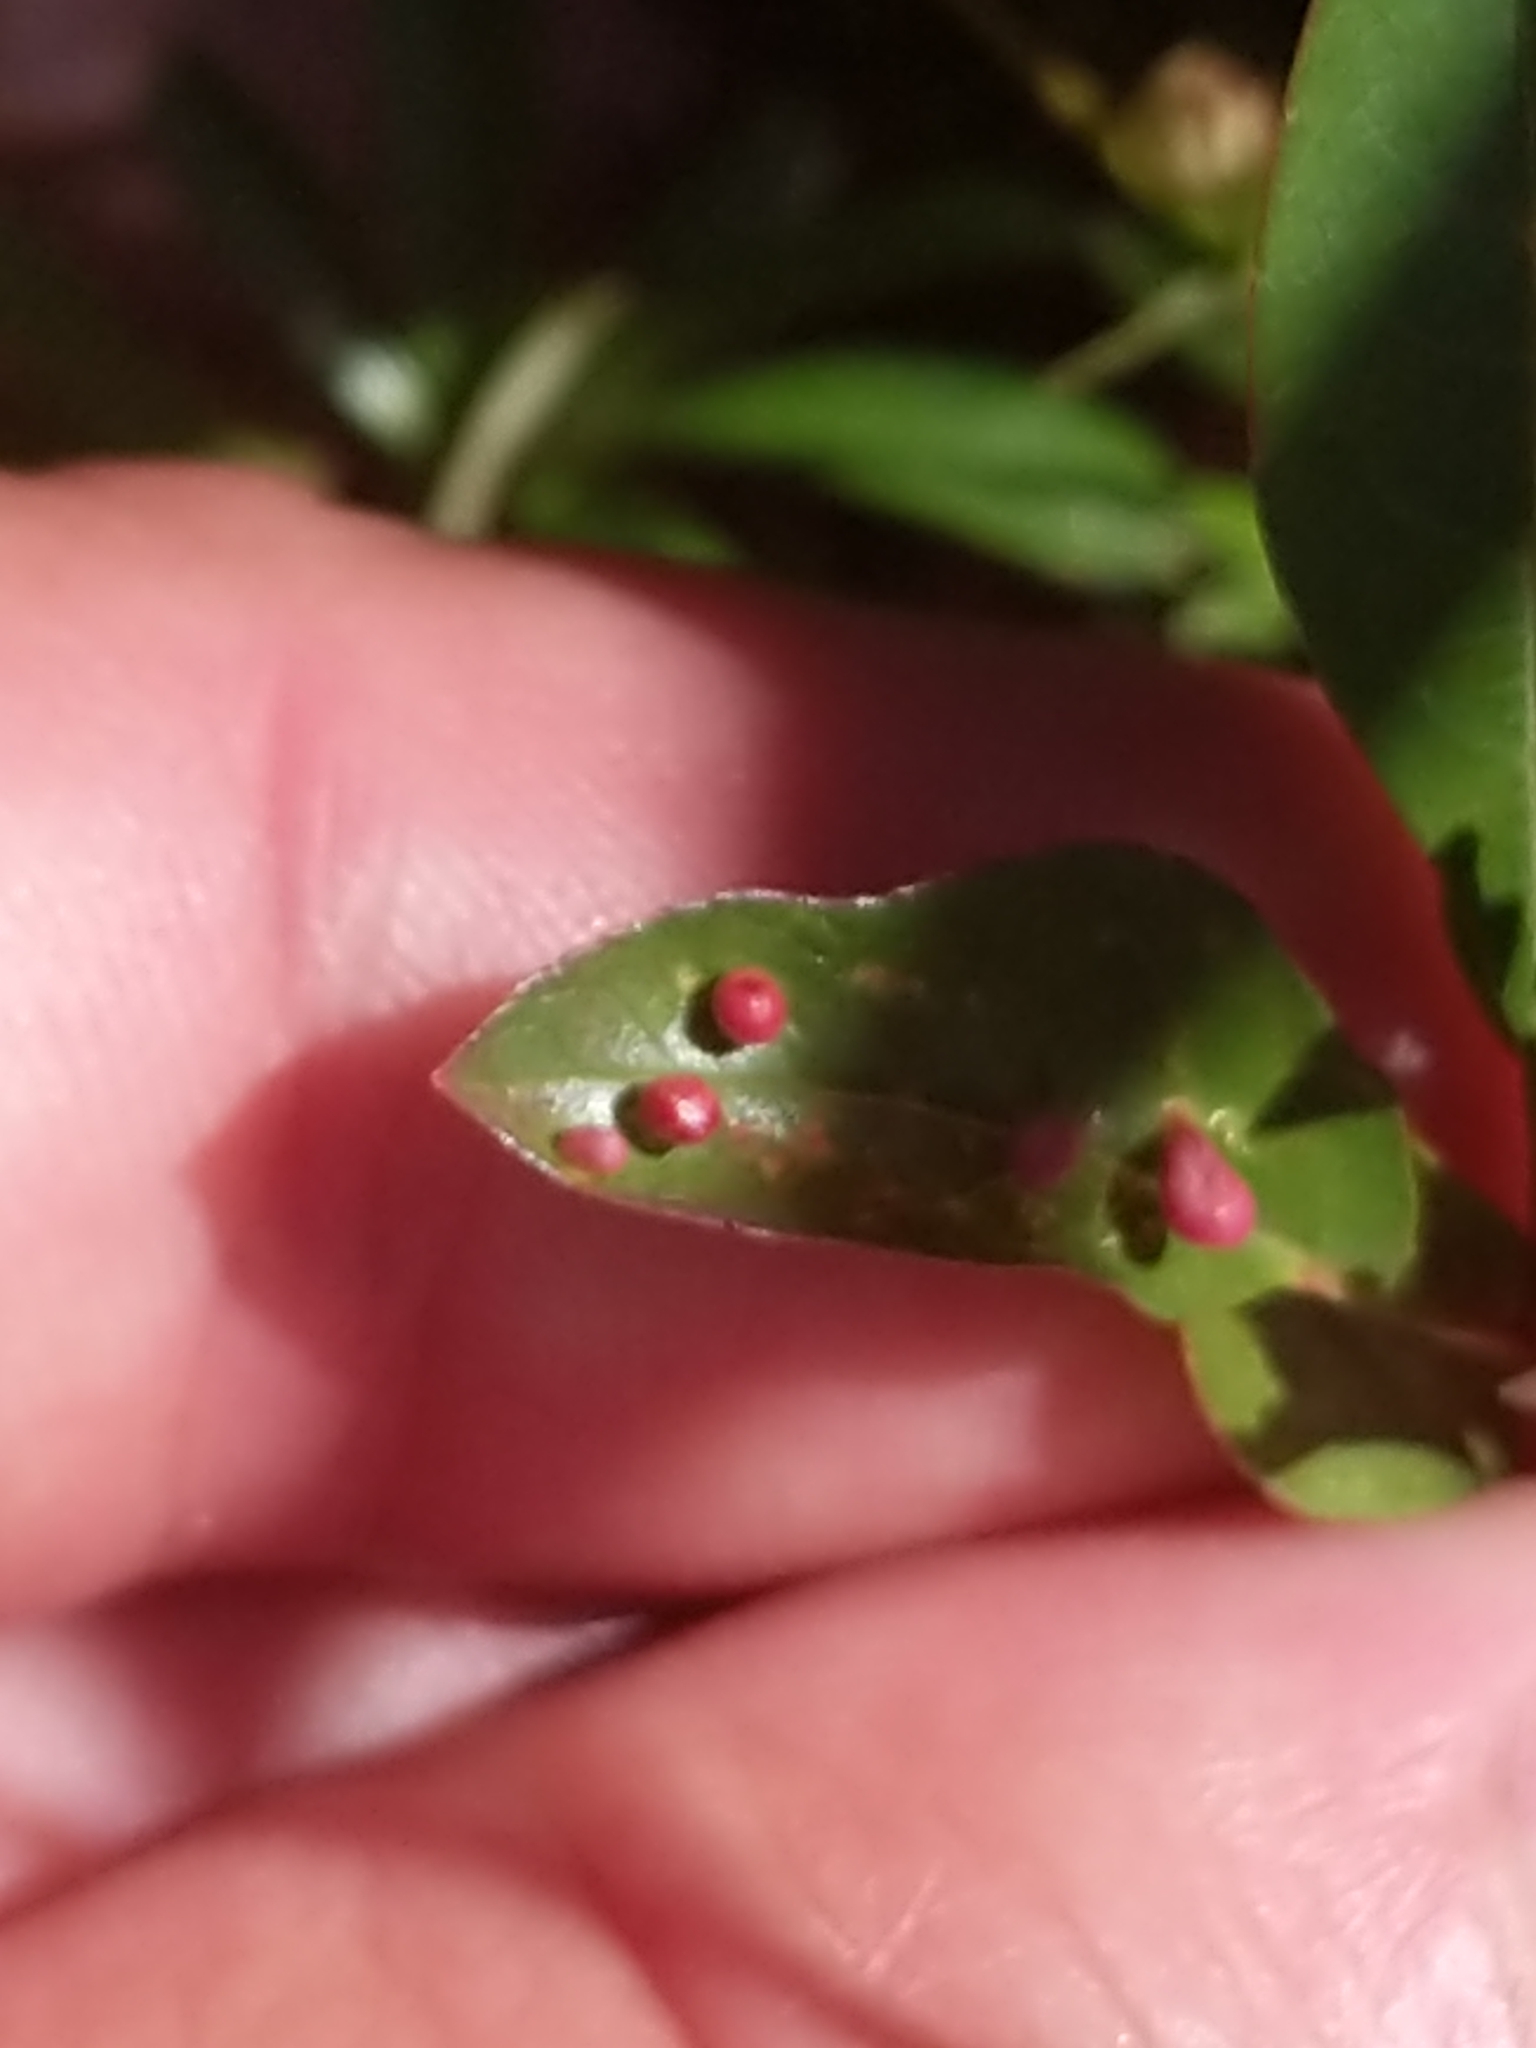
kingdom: Animalia
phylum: Arthropoda
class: Arachnida
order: Trombidiformes
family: Eriophyidae
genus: Eriophyes
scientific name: Eriophyes emarginatae
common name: Plum leaf gall mite
